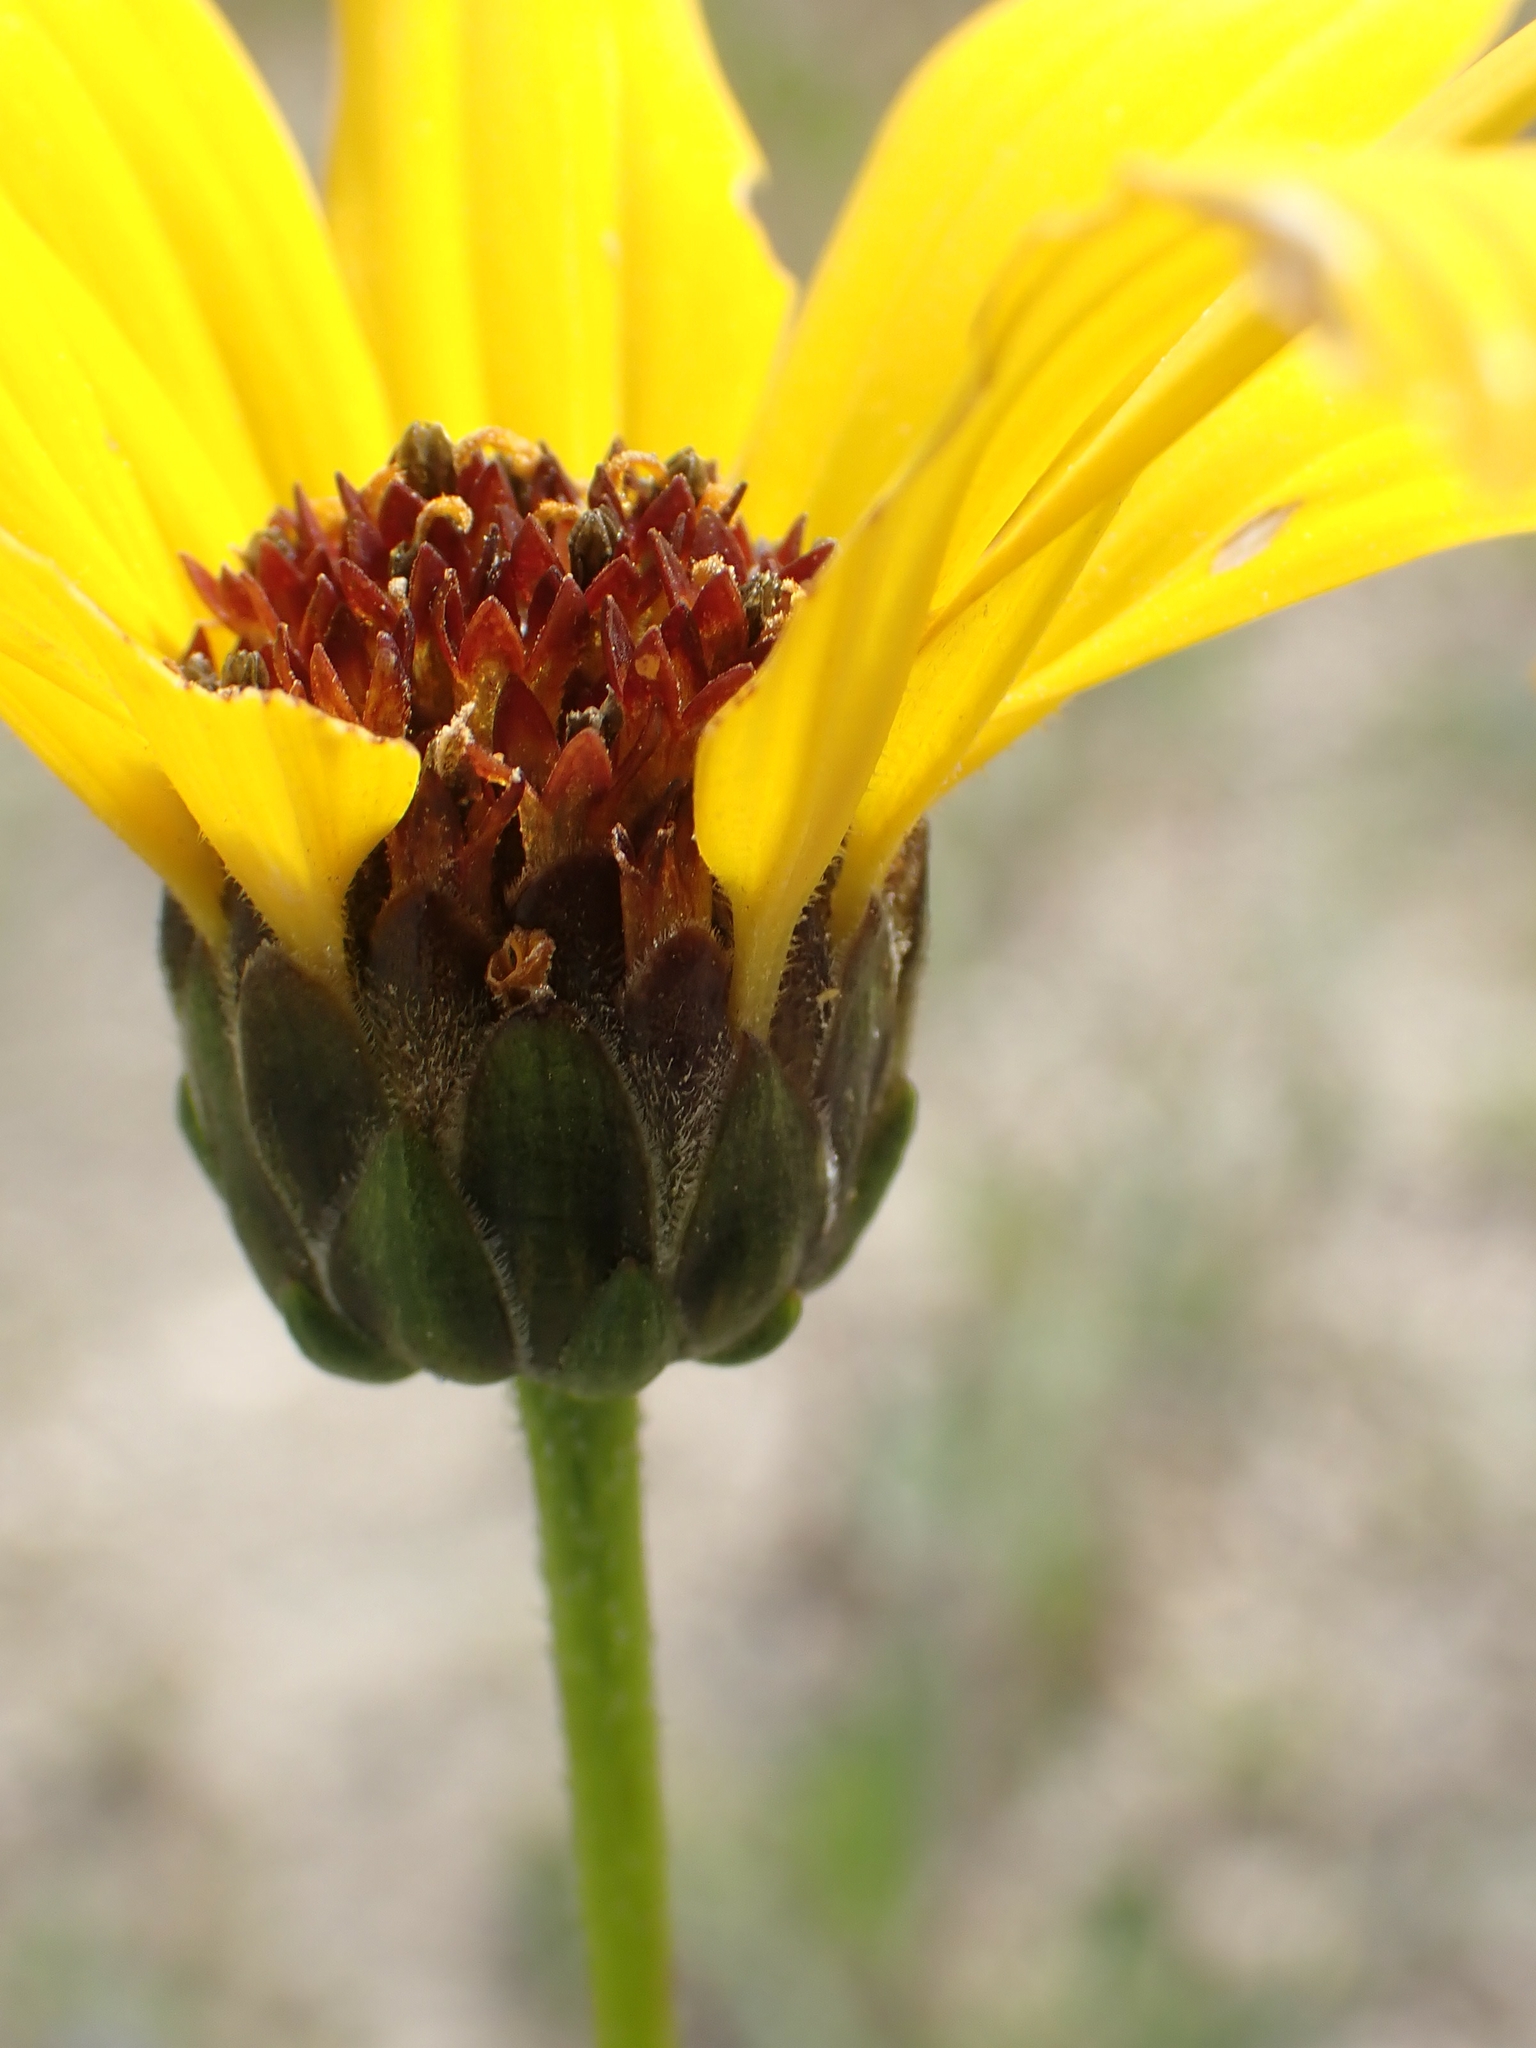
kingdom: Plantae
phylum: Tracheophyta
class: Magnoliopsida
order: Asterales
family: Asteraceae
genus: Helianthus
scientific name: Helianthus pauciflorus
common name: Stiff sunflower
